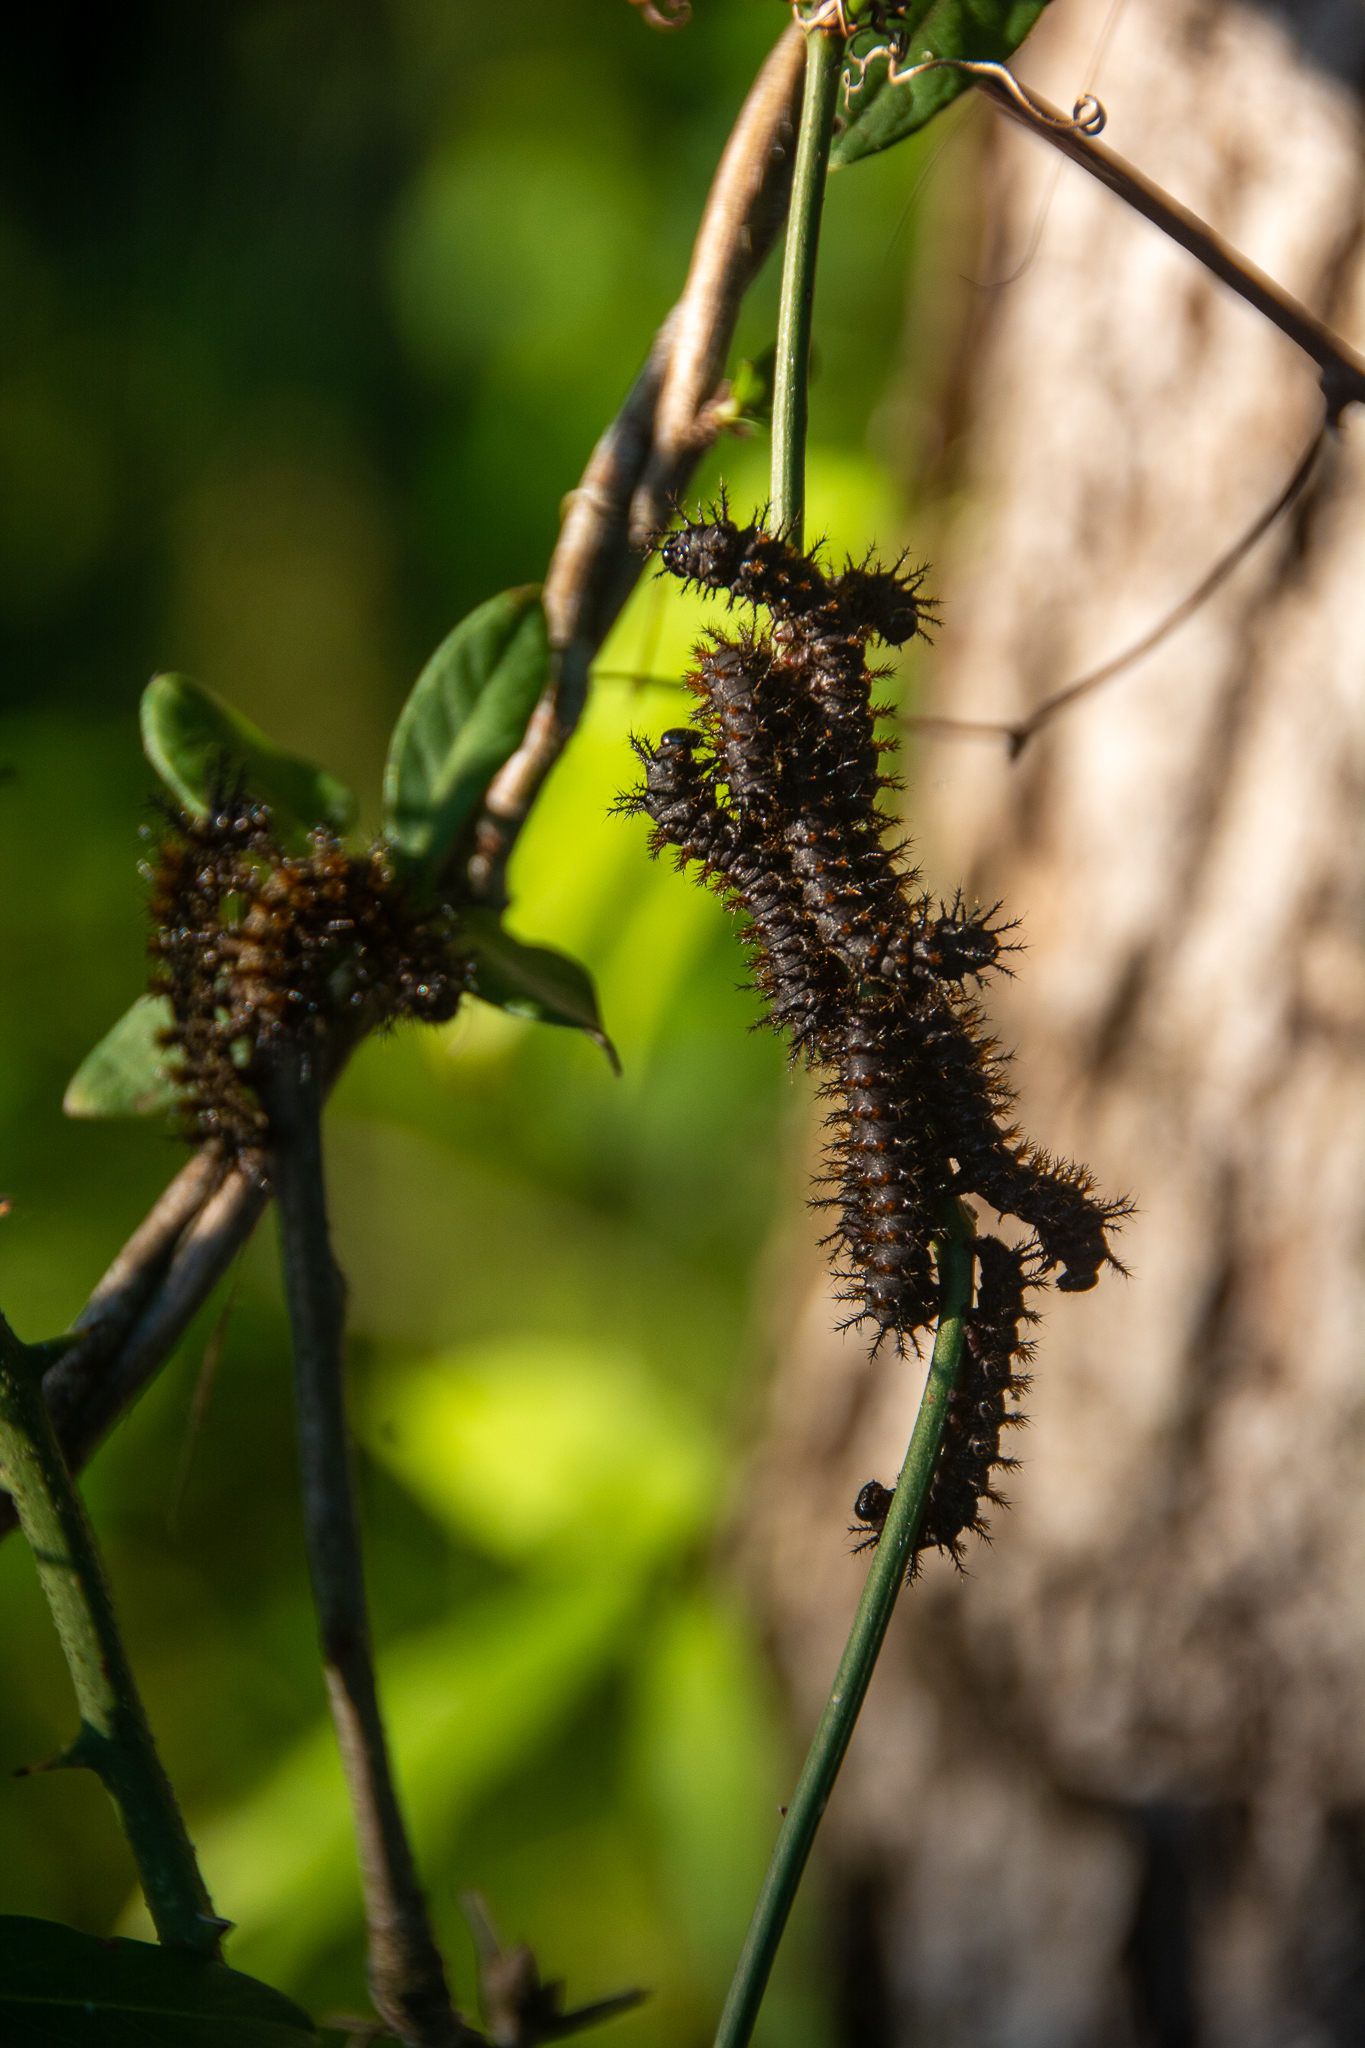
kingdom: Animalia
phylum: Arthropoda
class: Insecta
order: Lepidoptera
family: Saturniidae
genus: Hemileuca
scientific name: Hemileuca maia
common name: Eastern buckmoth
